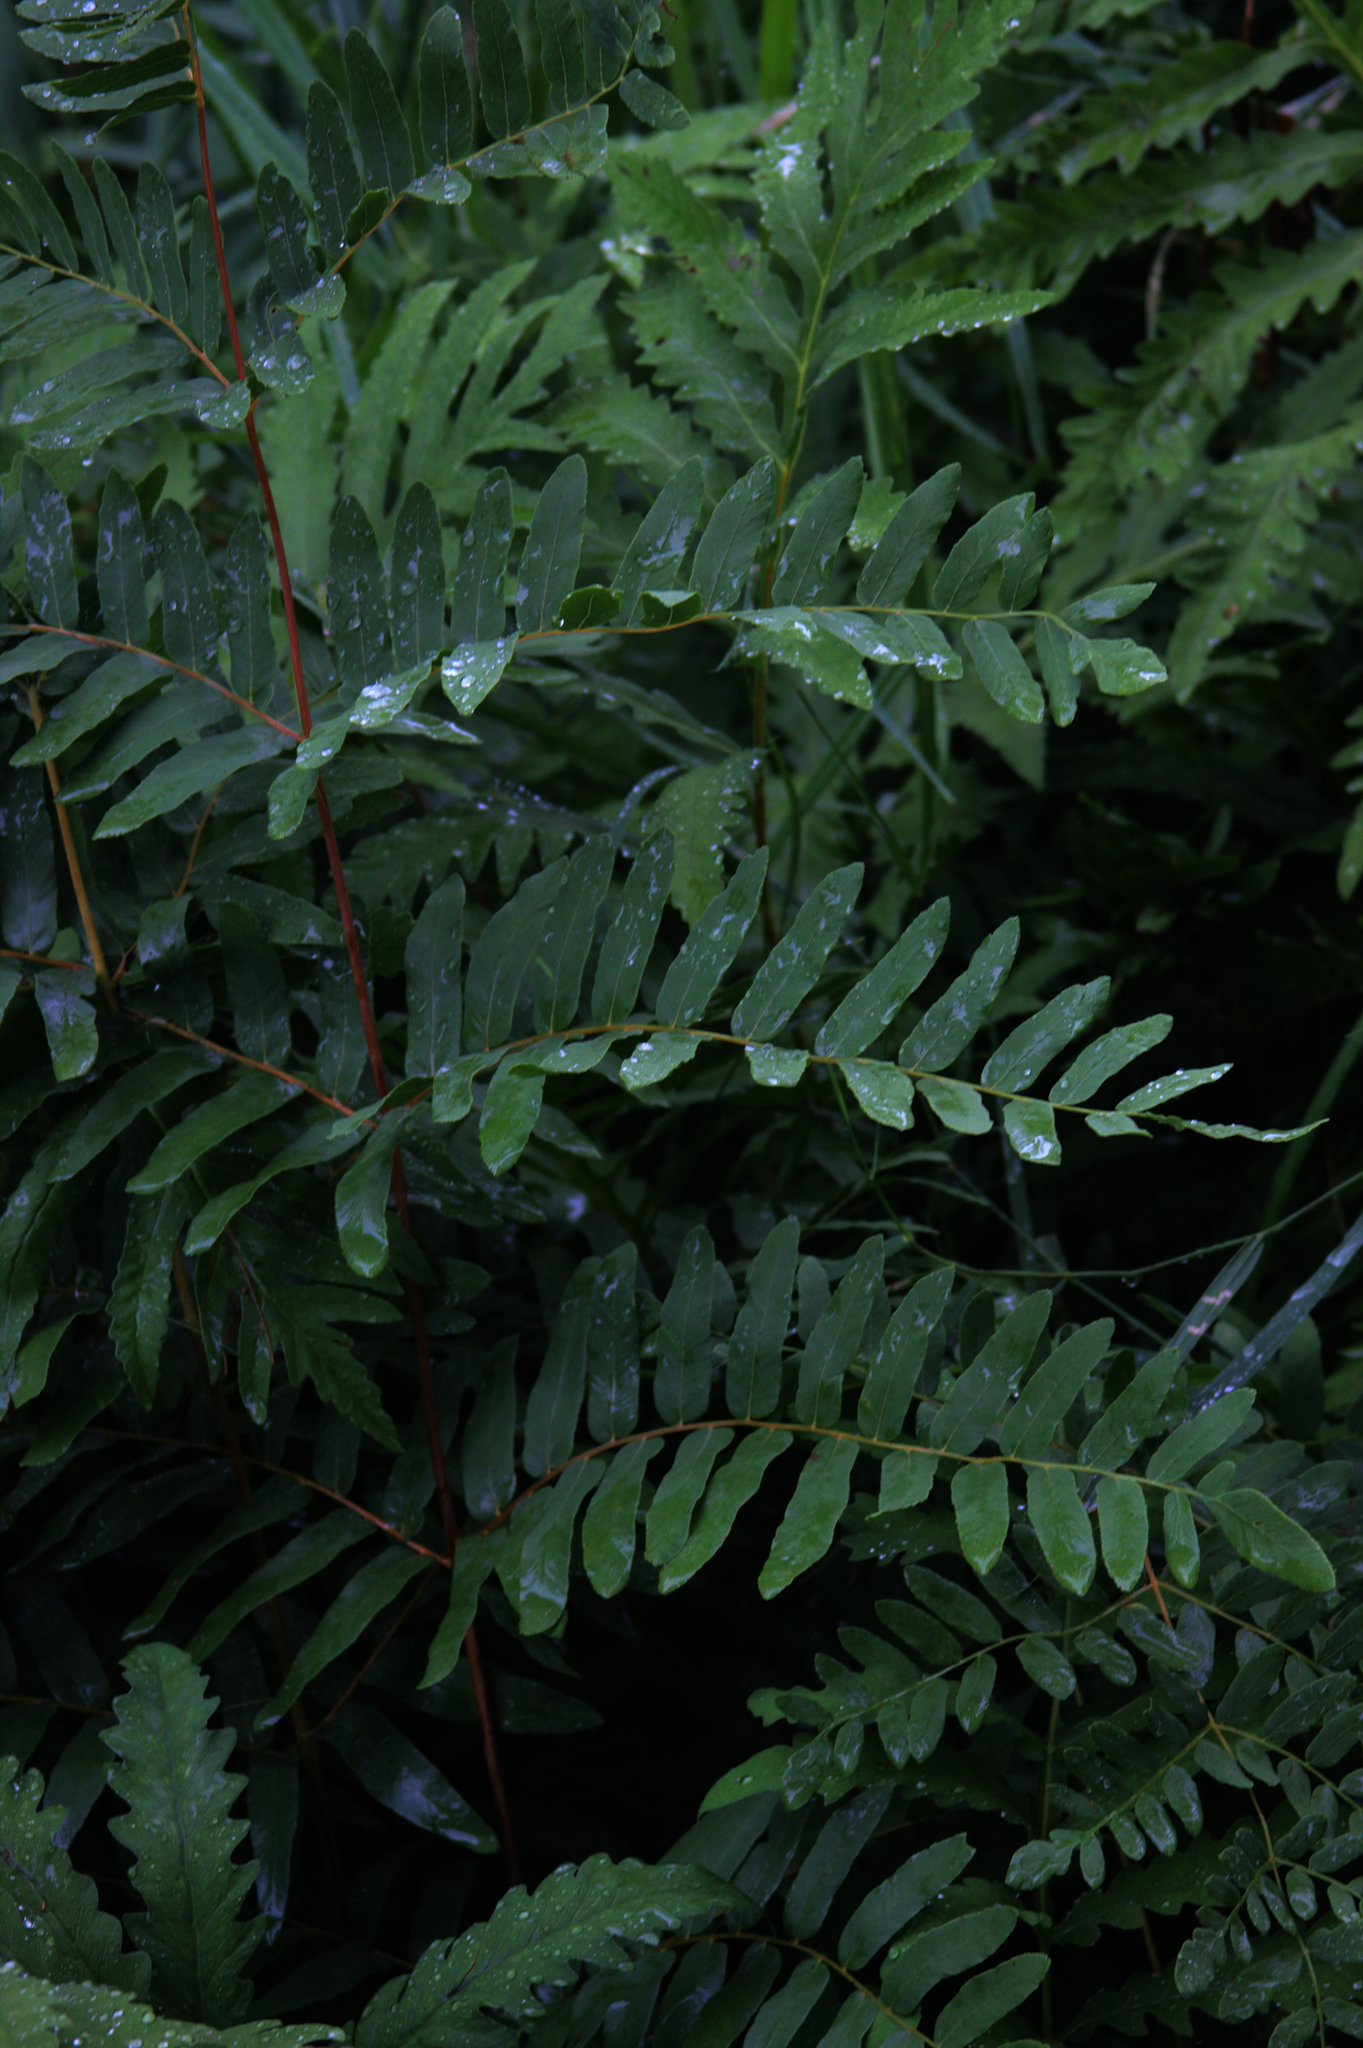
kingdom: Plantae
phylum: Tracheophyta
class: Polypodiopsida
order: Osmundales
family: Osmundaceae
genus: Osmunda
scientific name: Osmunda spectabilis
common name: American royal fern
